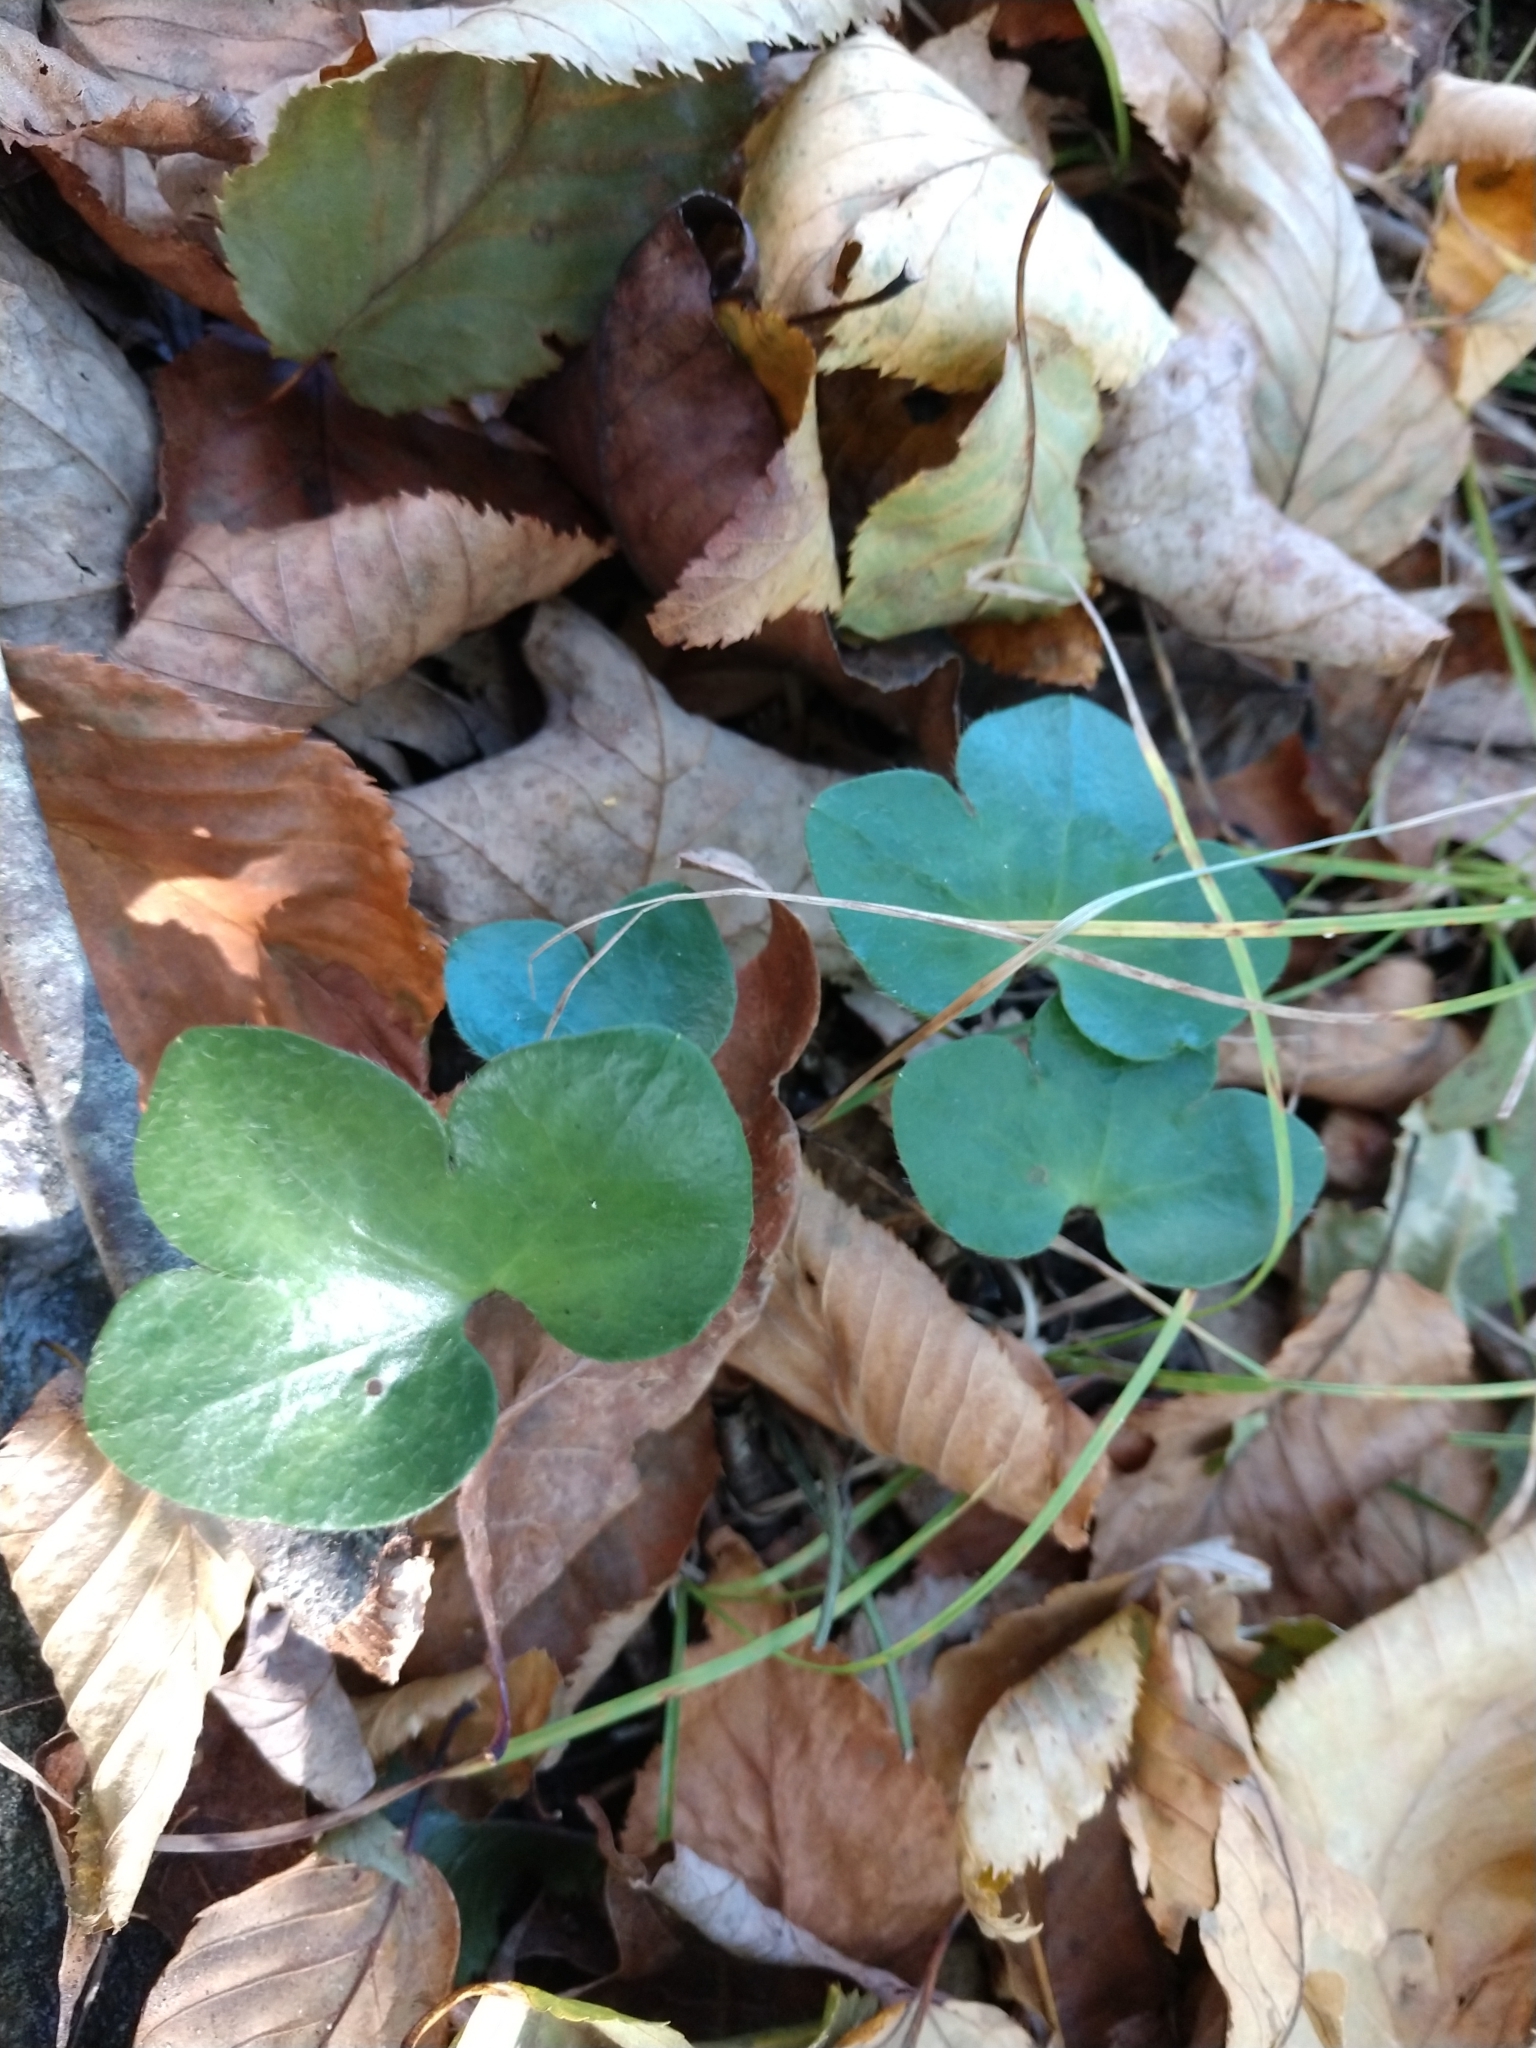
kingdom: Plantae
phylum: Tracheophyta
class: Magnoliopsida
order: Ranunculales
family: Ranunculaceae
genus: Hepatica
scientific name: Hepatica americana
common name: American hepatica
